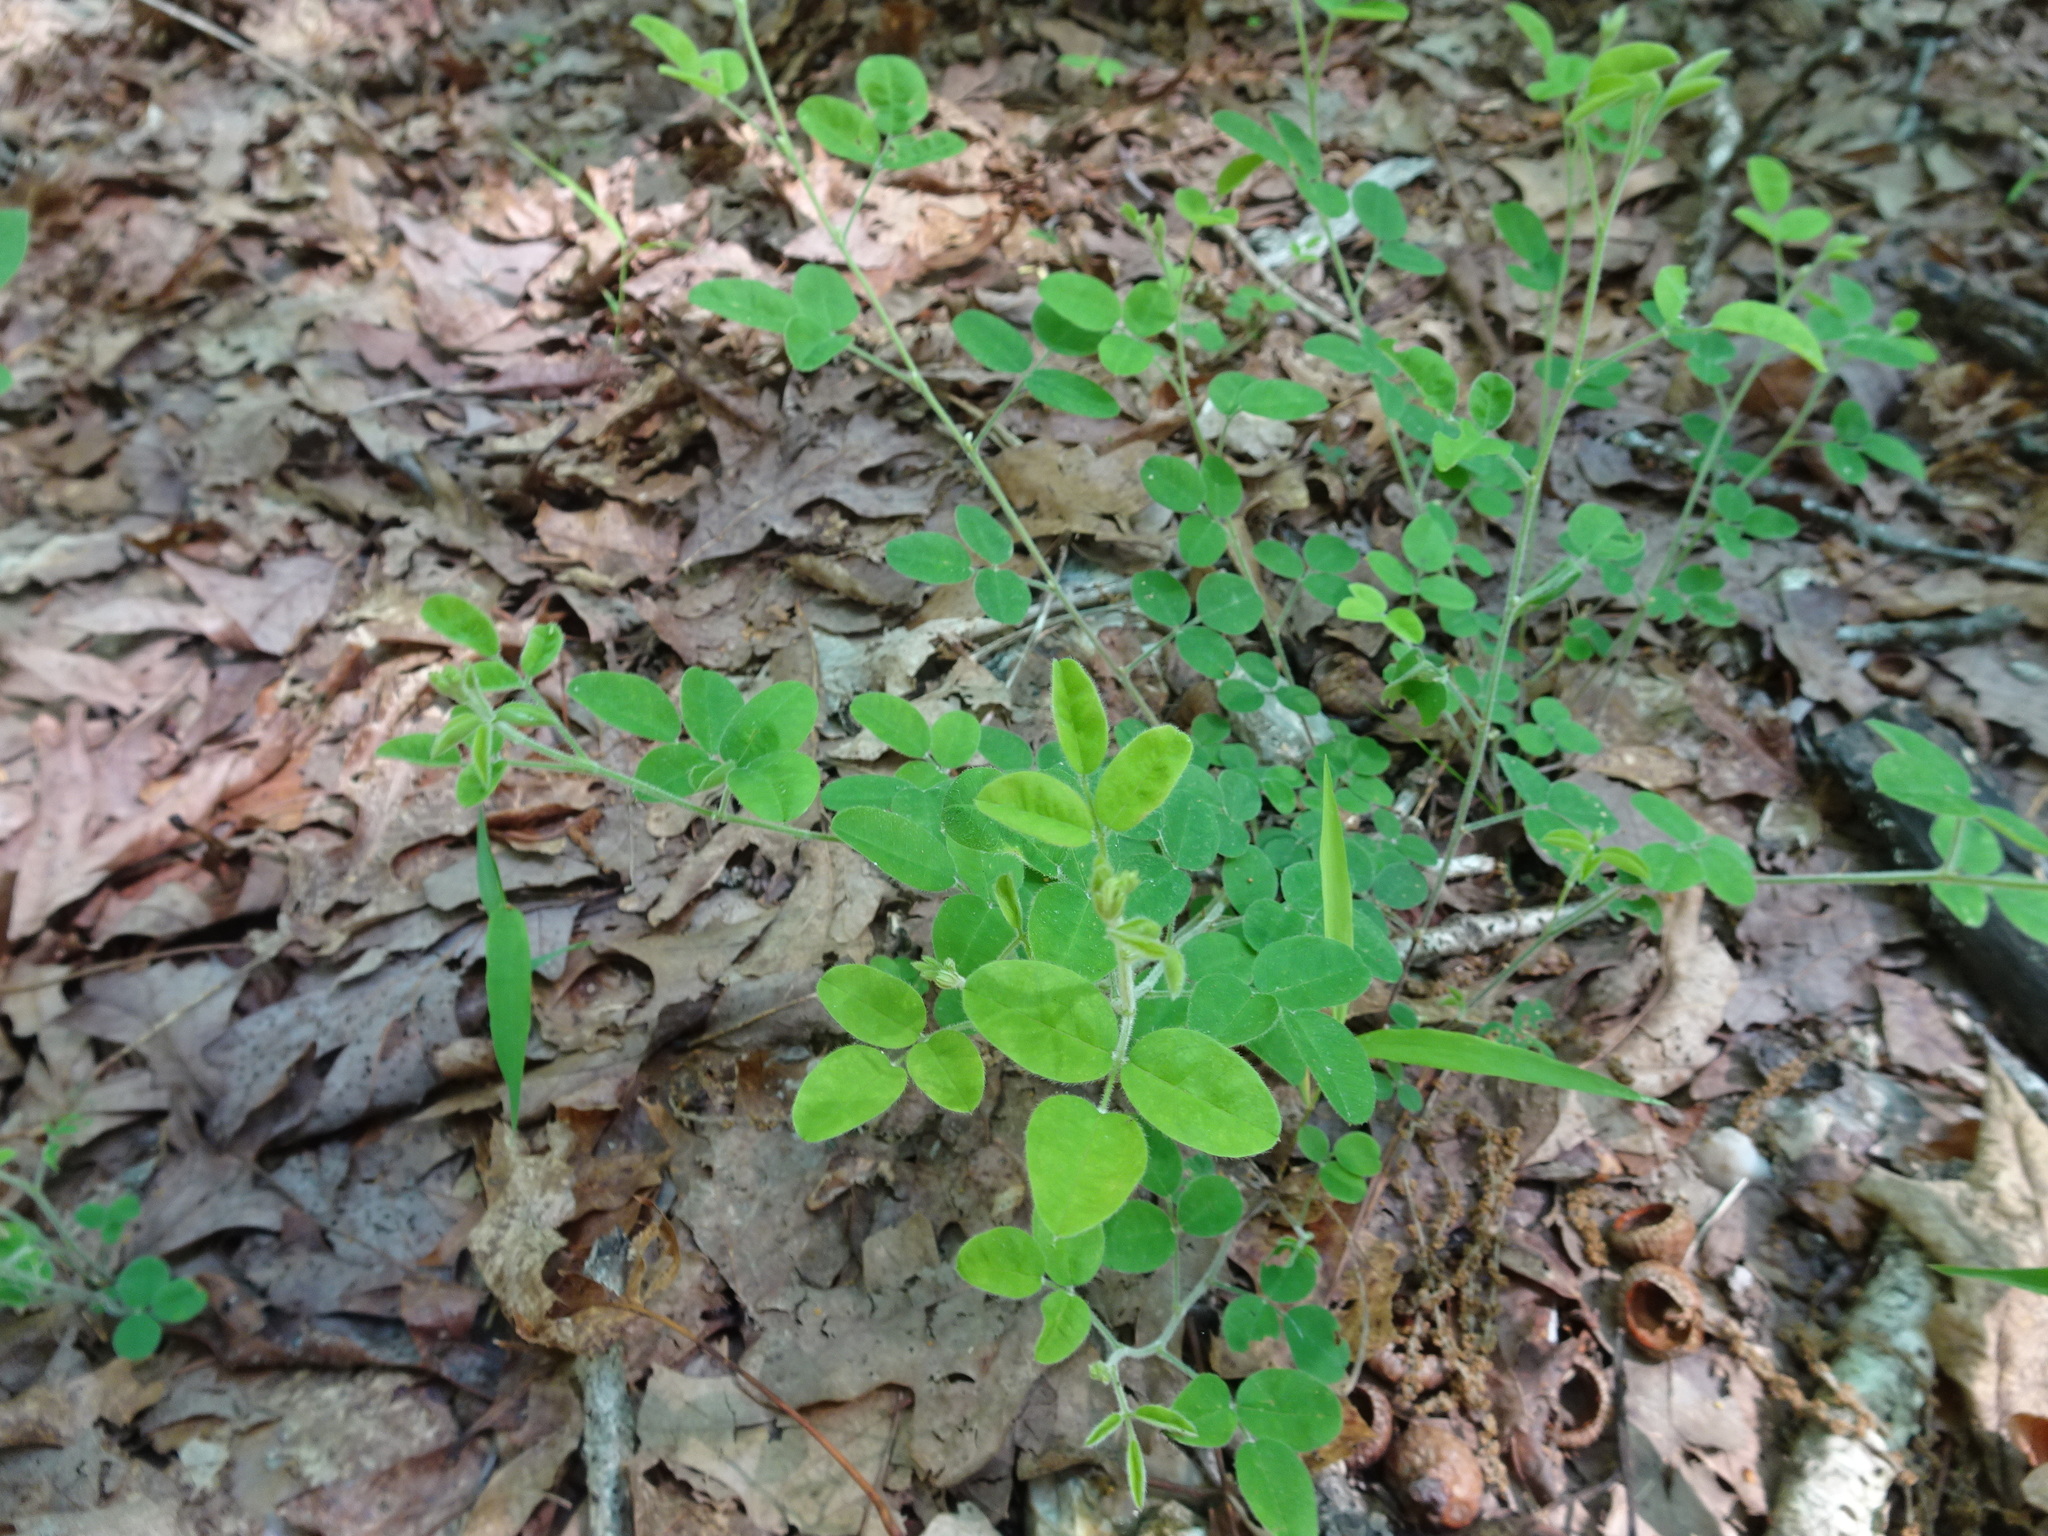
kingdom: Plantae
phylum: Tracheophyta
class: Magnoliopsida
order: Fabales
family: Fabaceae
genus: Lespedeza
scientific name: Lespedeza procumbens
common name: Downy trailing bush-clover
